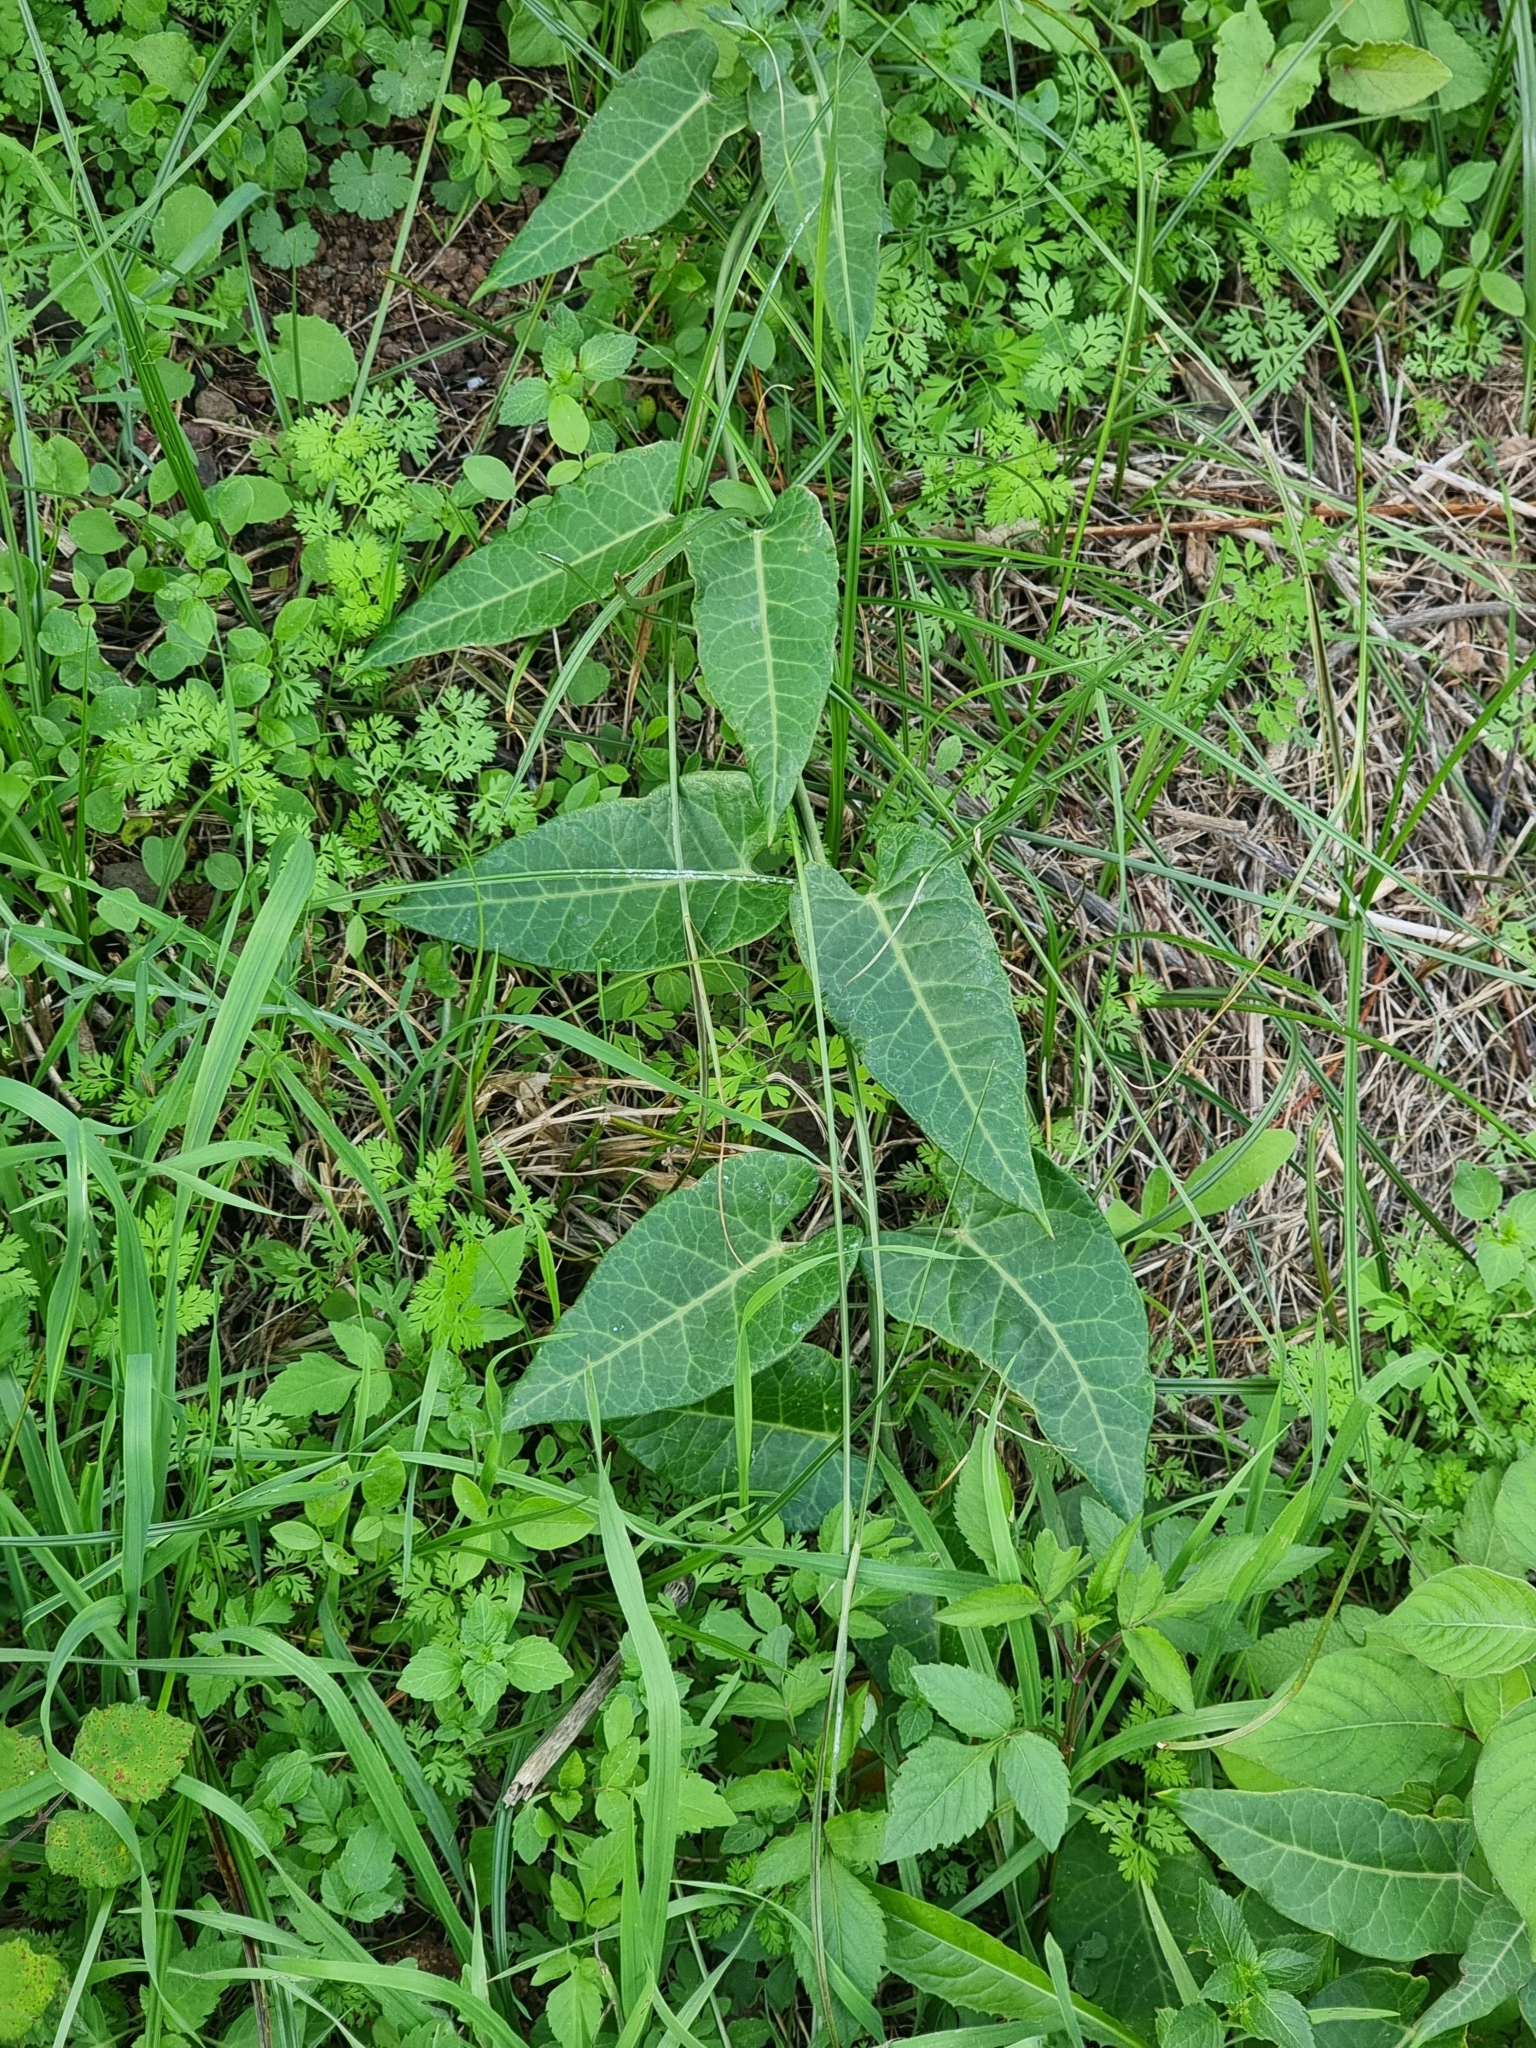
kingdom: Plantae
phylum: Tracheophyta
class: Magnoliopsida
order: Gentianales
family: Apocynaceae
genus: Araujia
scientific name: Araujia sericifera
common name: White bladderflower
